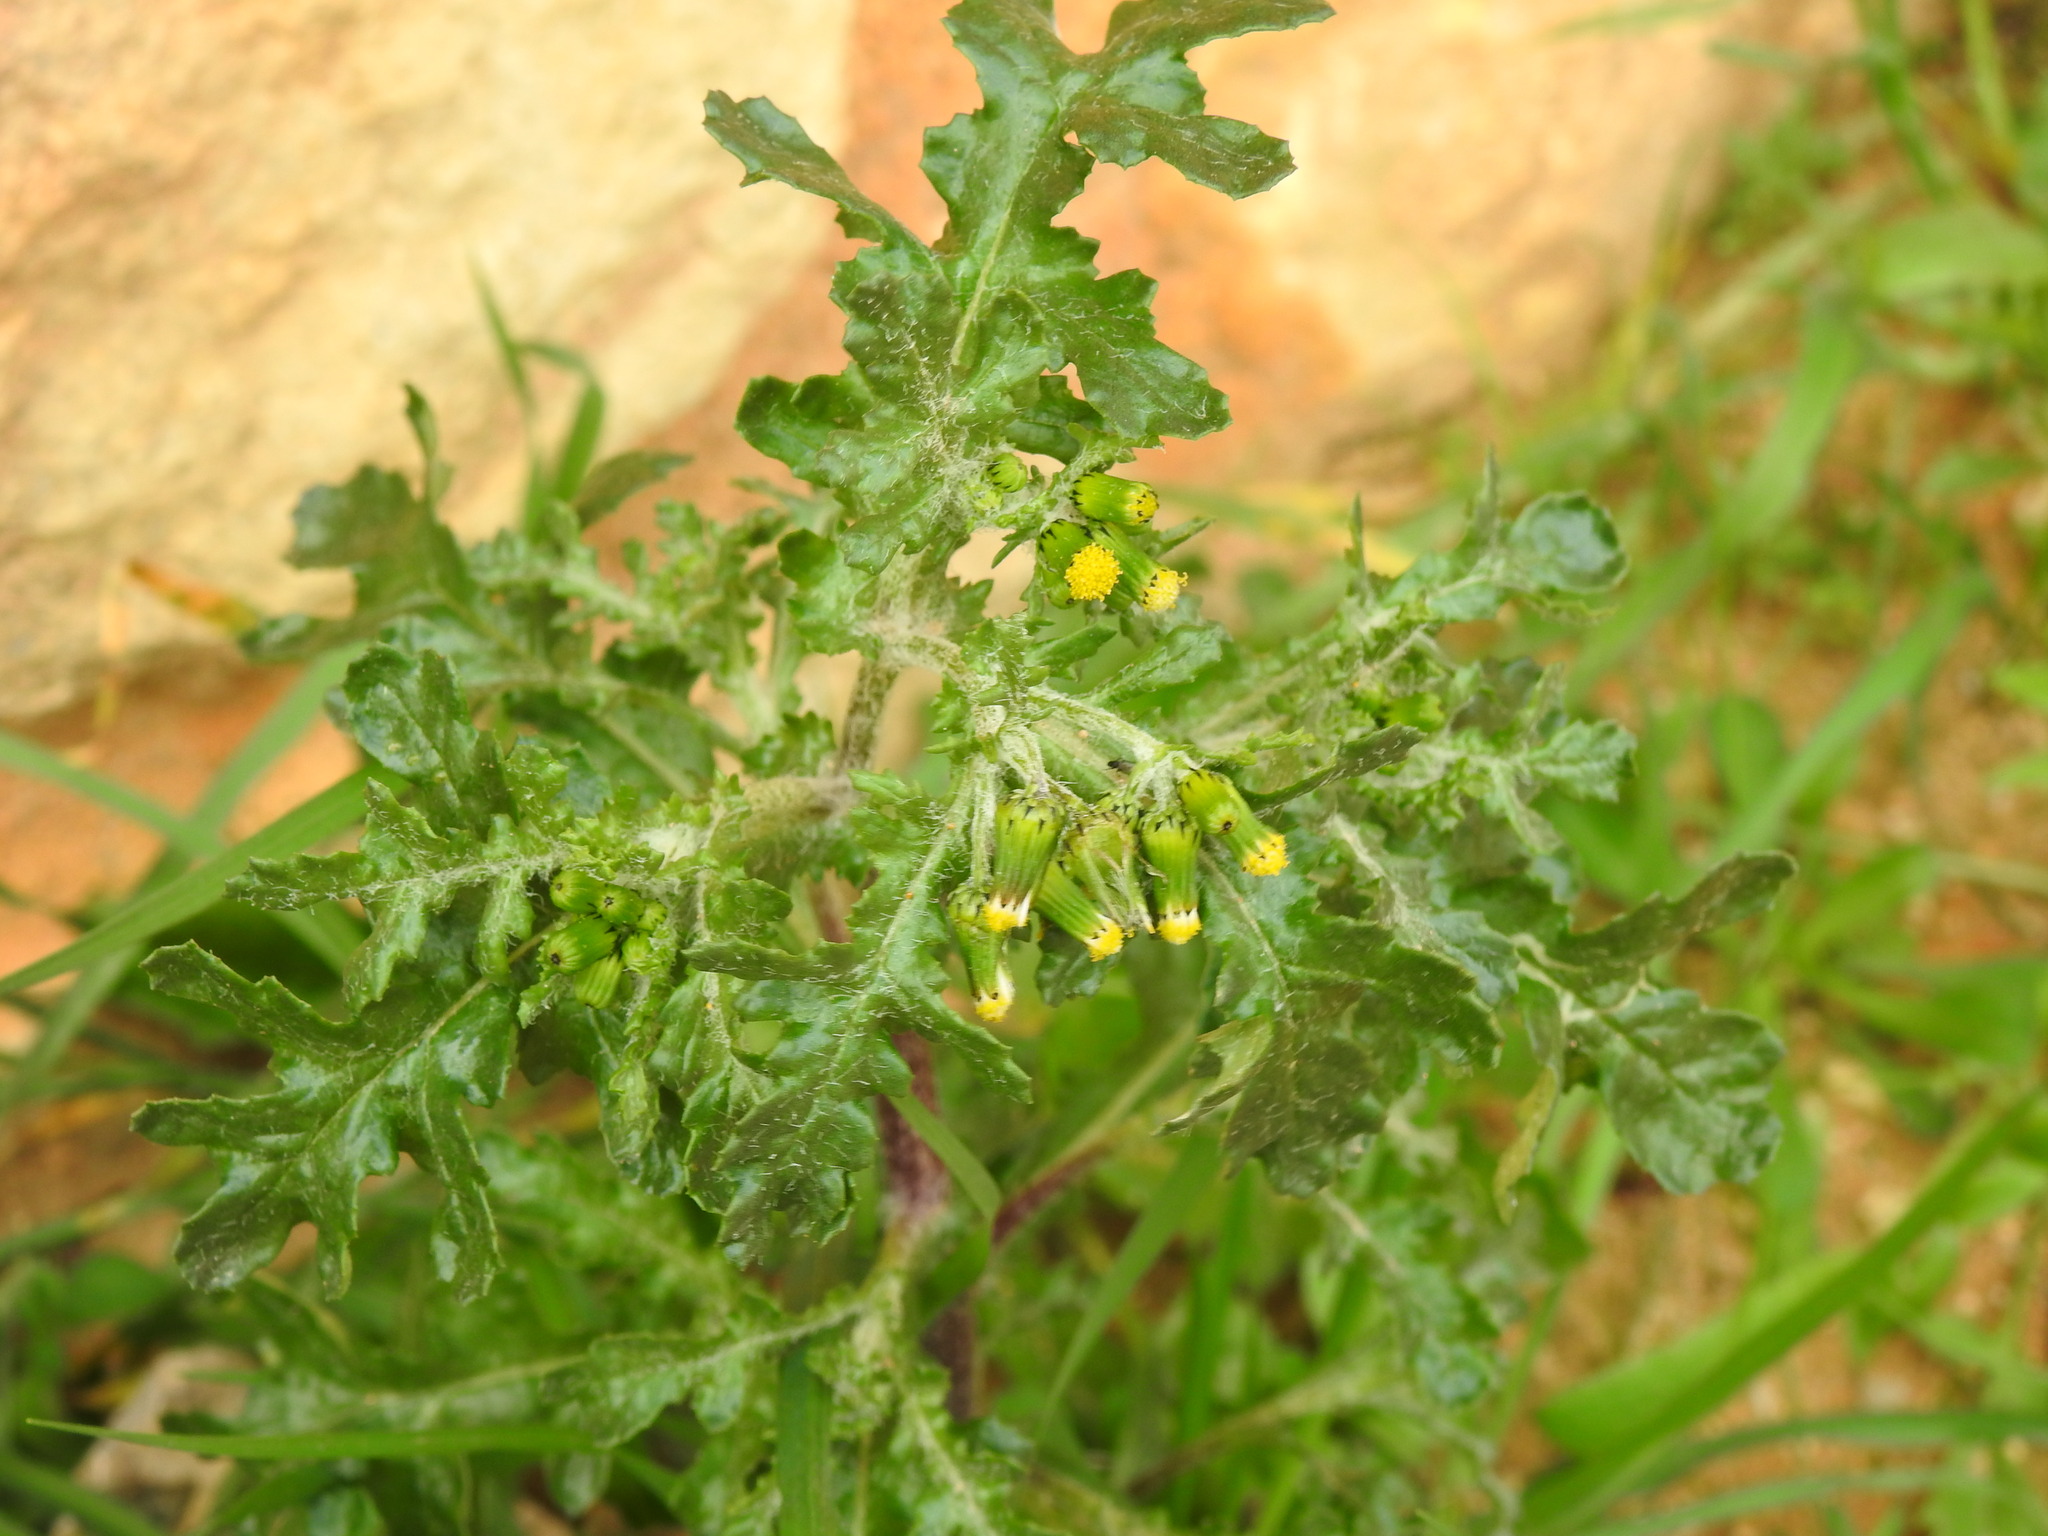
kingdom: Plantae
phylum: Tracheophyta
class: Magnoliopsida
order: Asterales
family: Asteraceae
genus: Senecio
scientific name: Senecio vulgaris
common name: Old-man-in-the-spring
